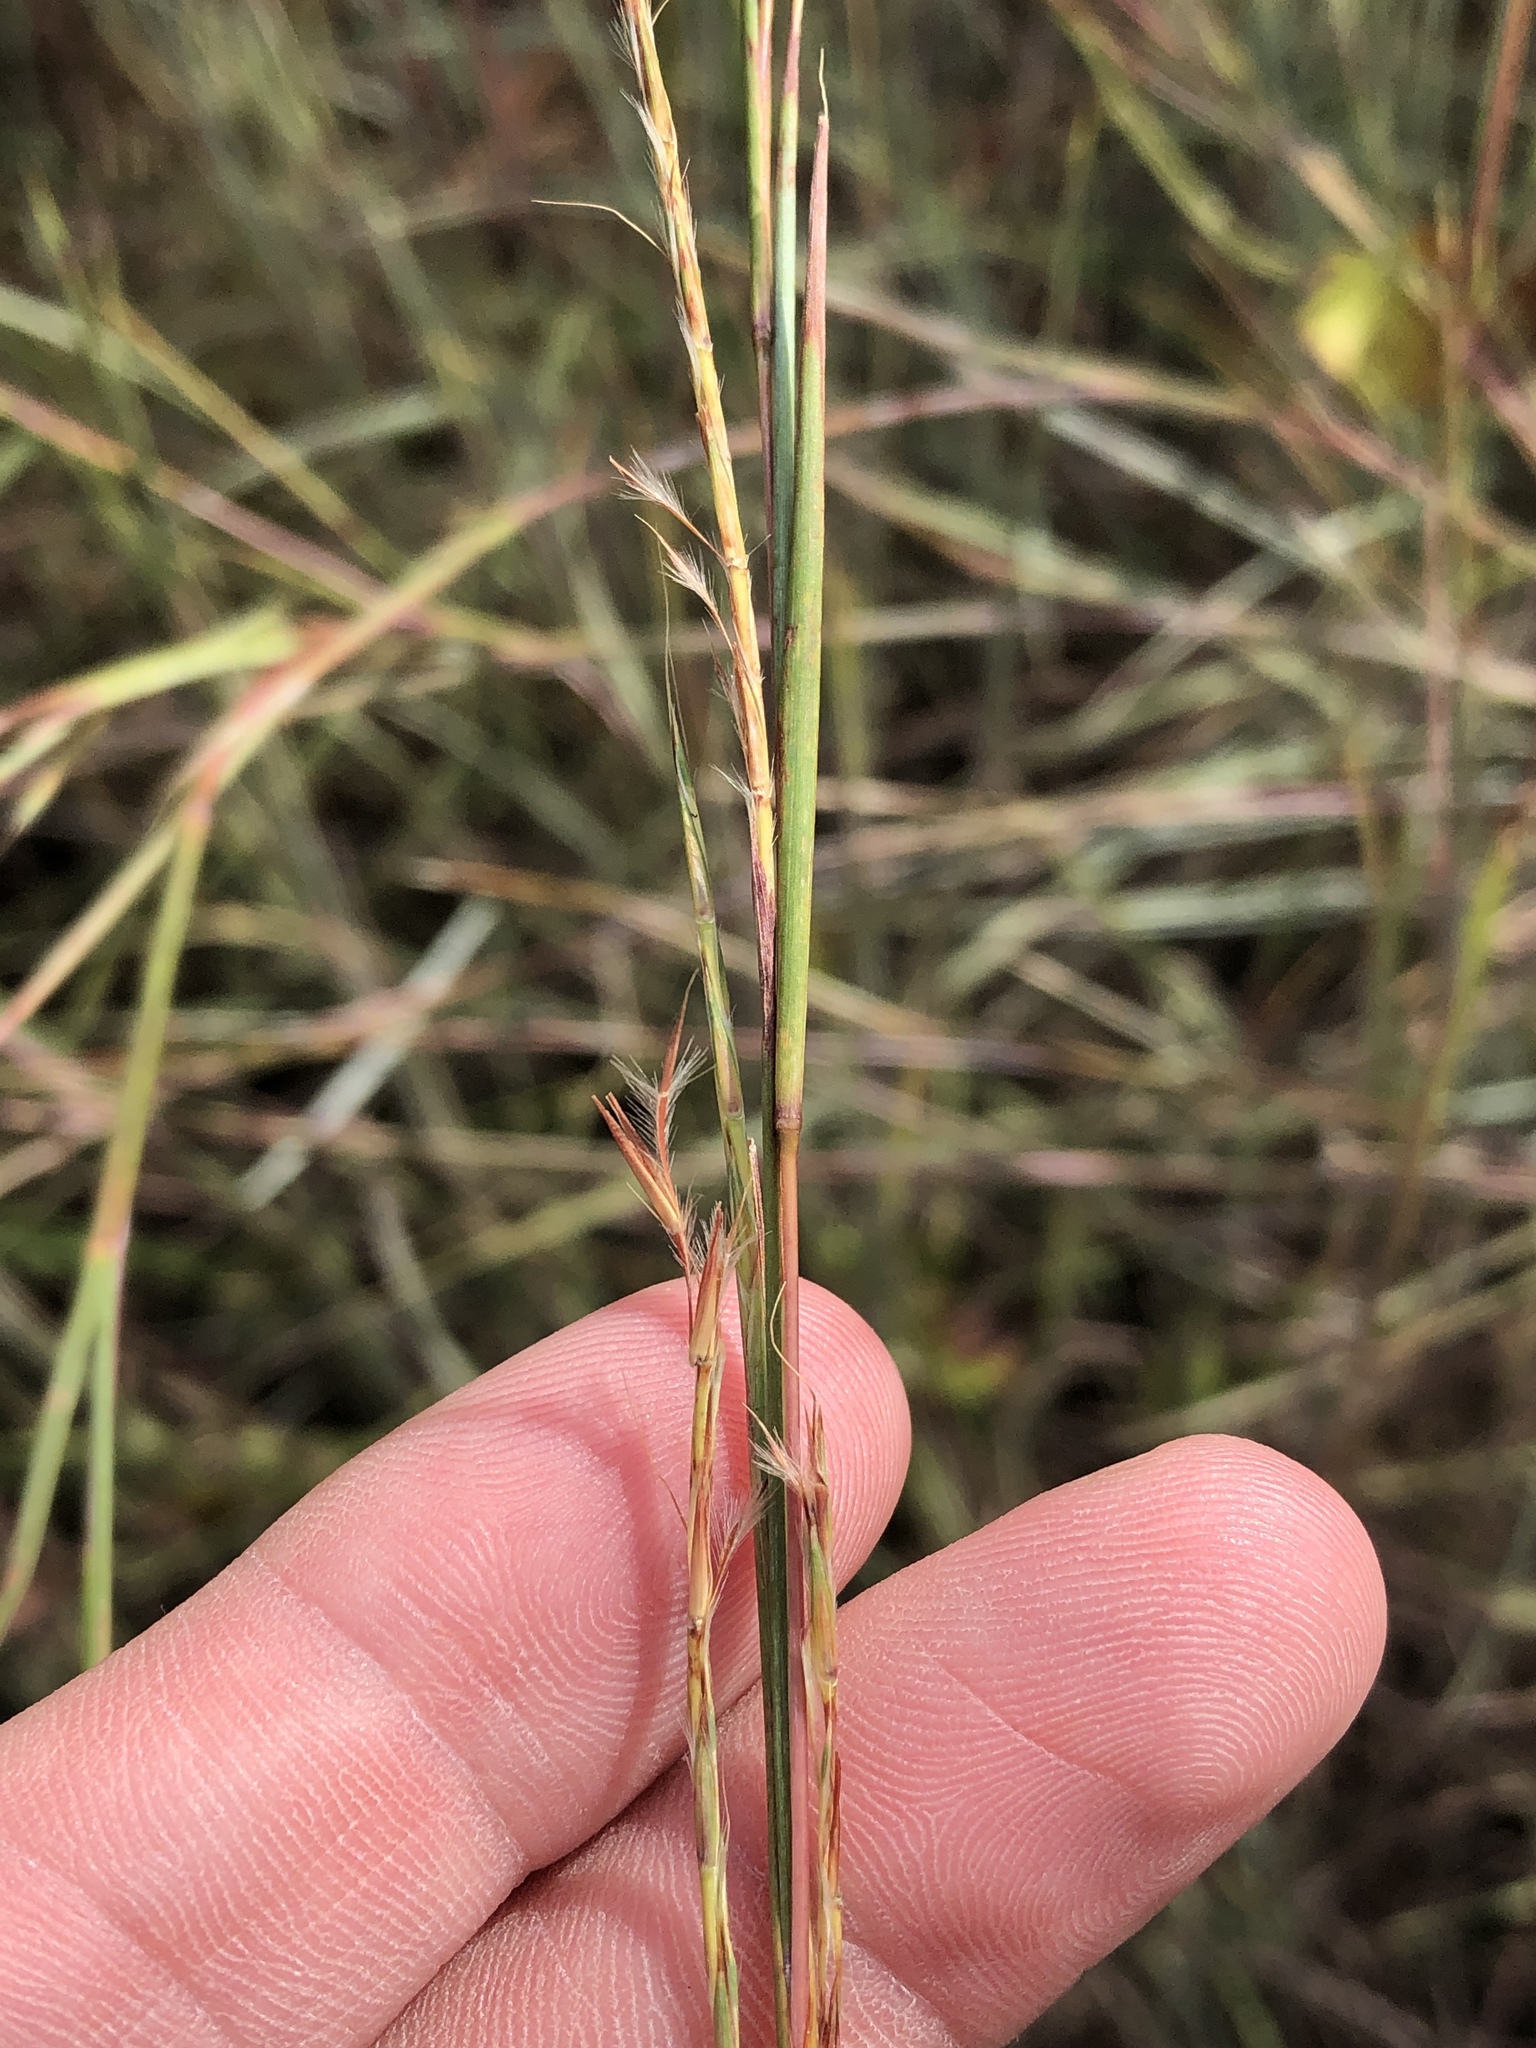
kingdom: Plantae
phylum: Tracheophyta
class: Liliopsida
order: Poales
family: Poaceae
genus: Schizachyrium
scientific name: Schizachyrium scoparium
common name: Little bluestem
